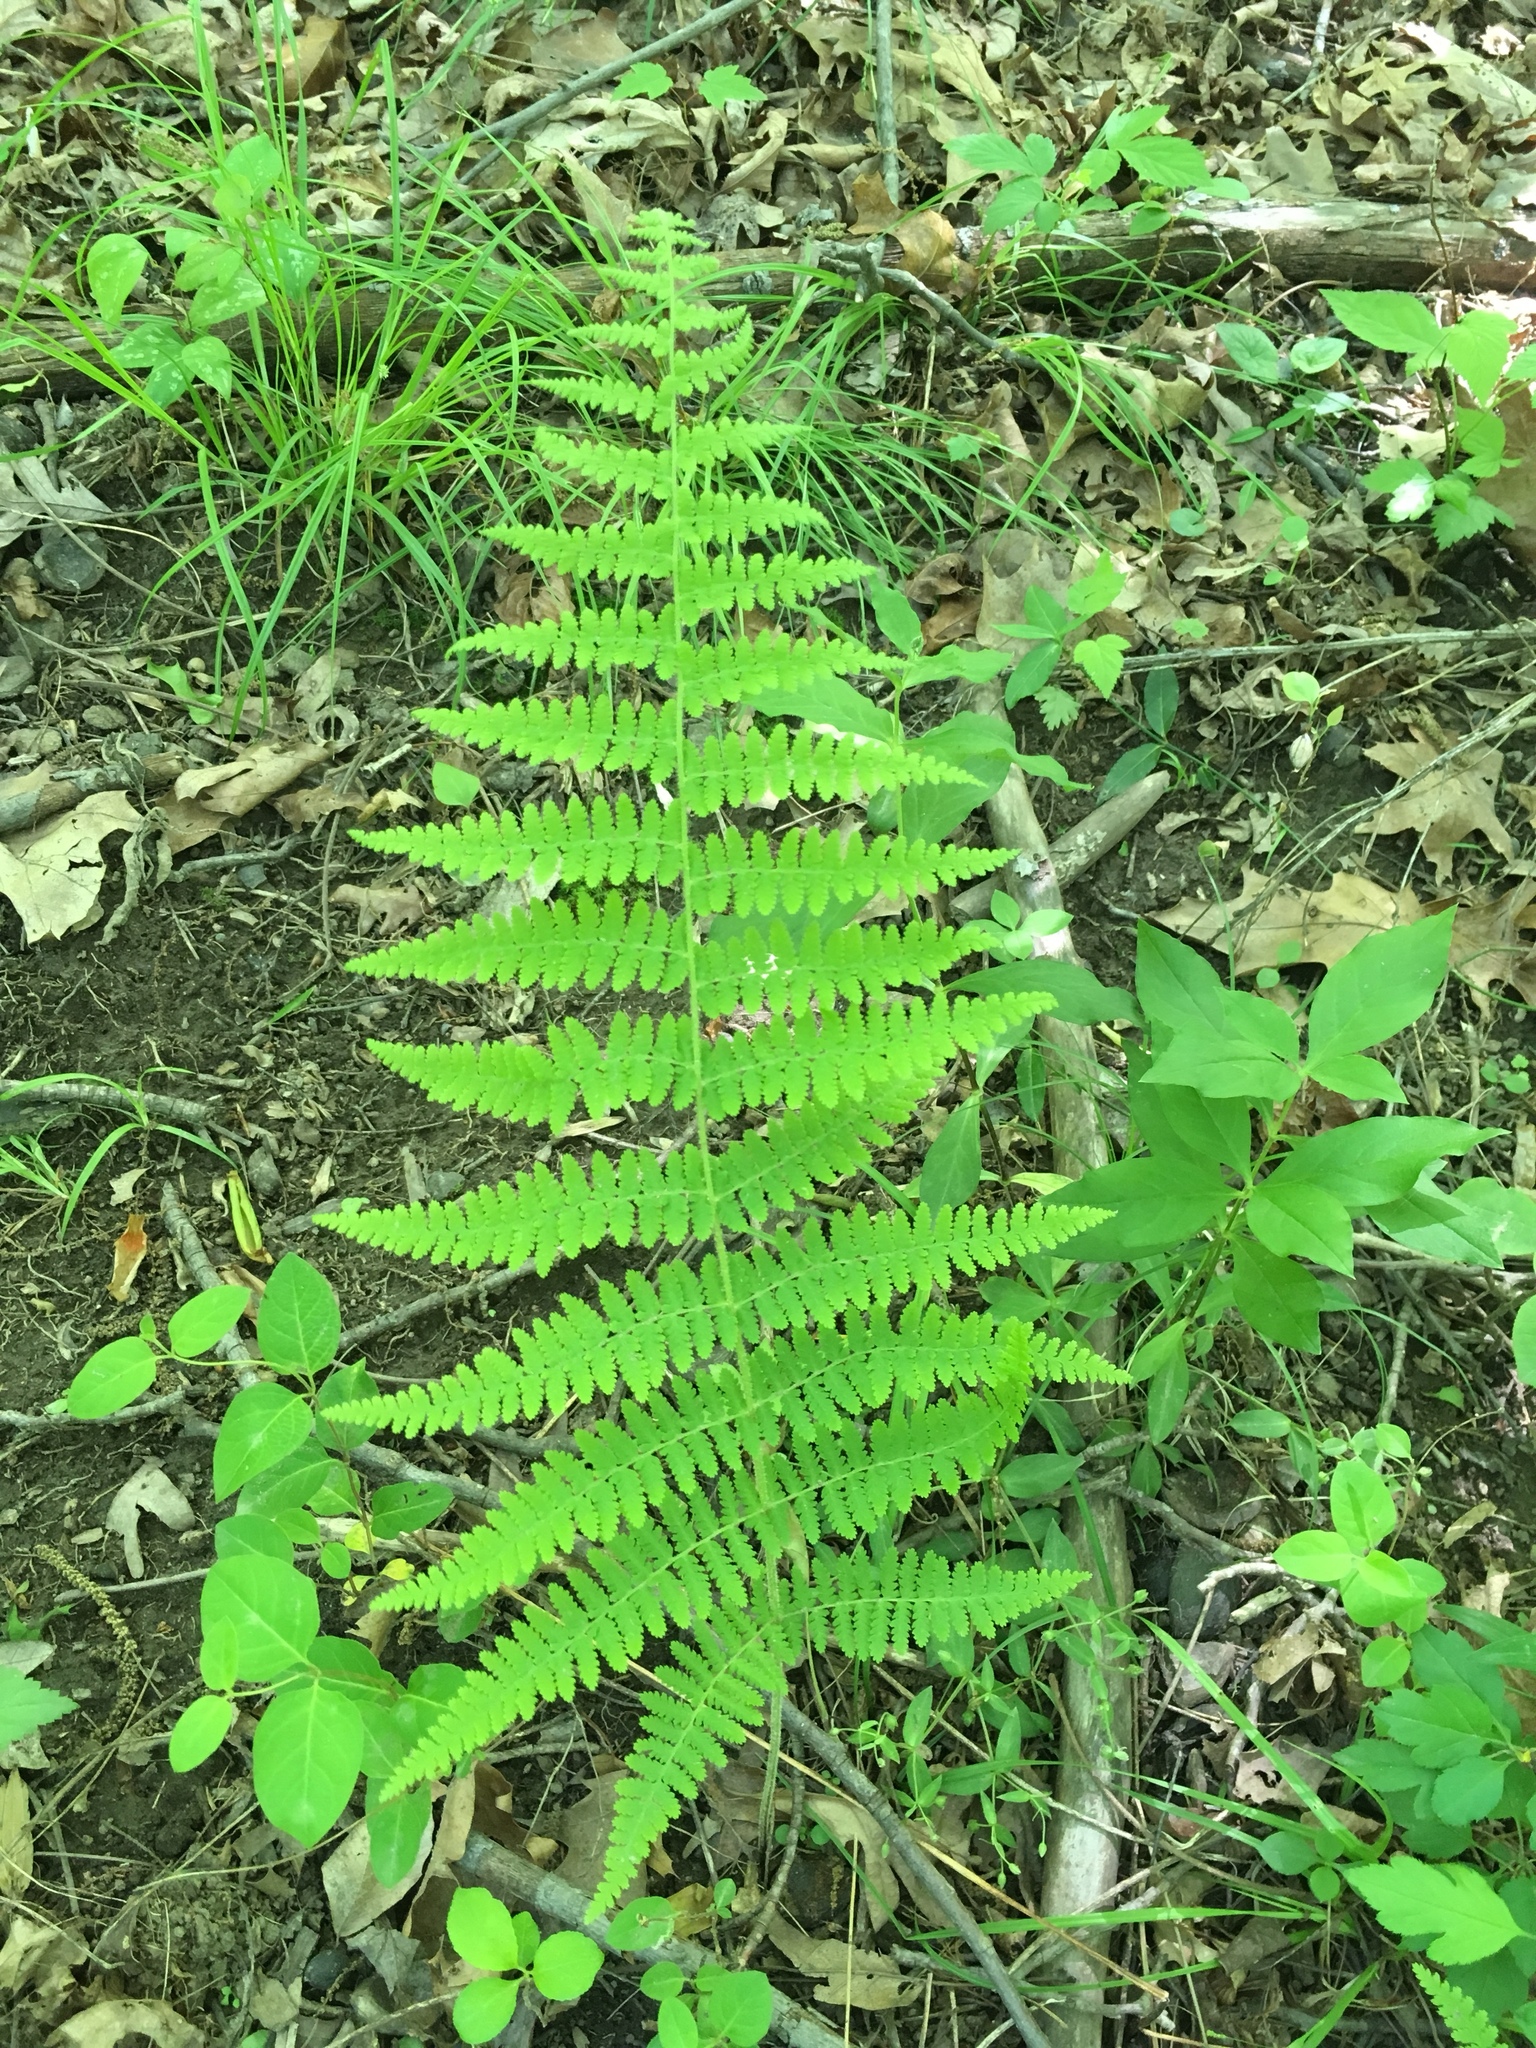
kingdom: Plantae
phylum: Tracheophyta
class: Polypodiopsida
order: Polypodiales
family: Dennstaedtiaceae
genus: Sitobolium
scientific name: Sitobolium punctilobum
